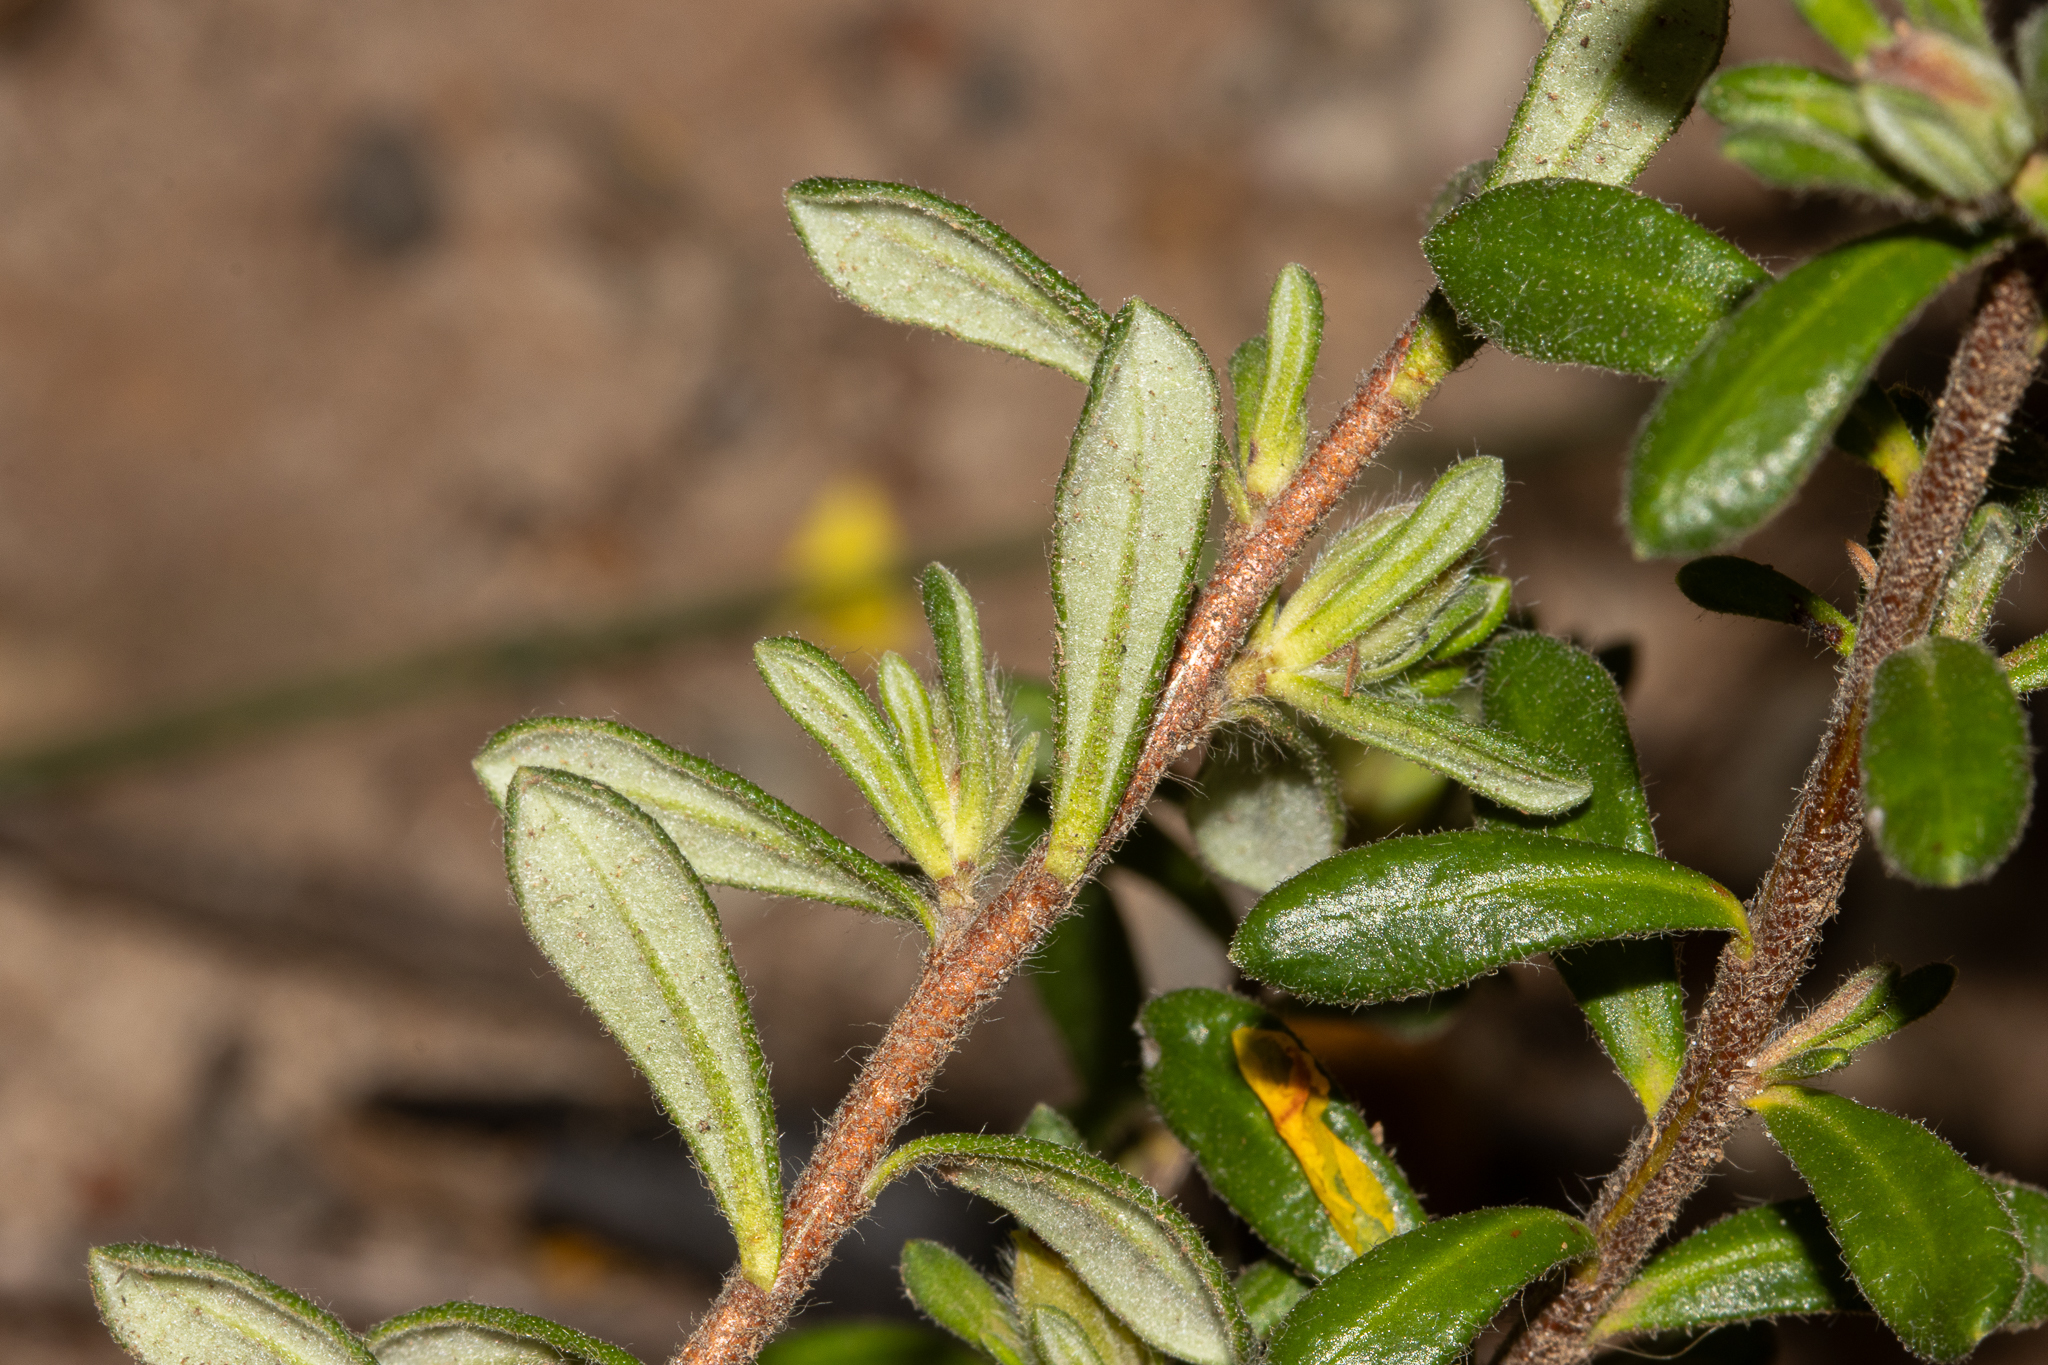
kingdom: Plantae
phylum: Tracheophyta
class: Magnoliopsida
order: Dilleniales
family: Dilleniaceae
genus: Hibbertia
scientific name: Hibbertia villifera
